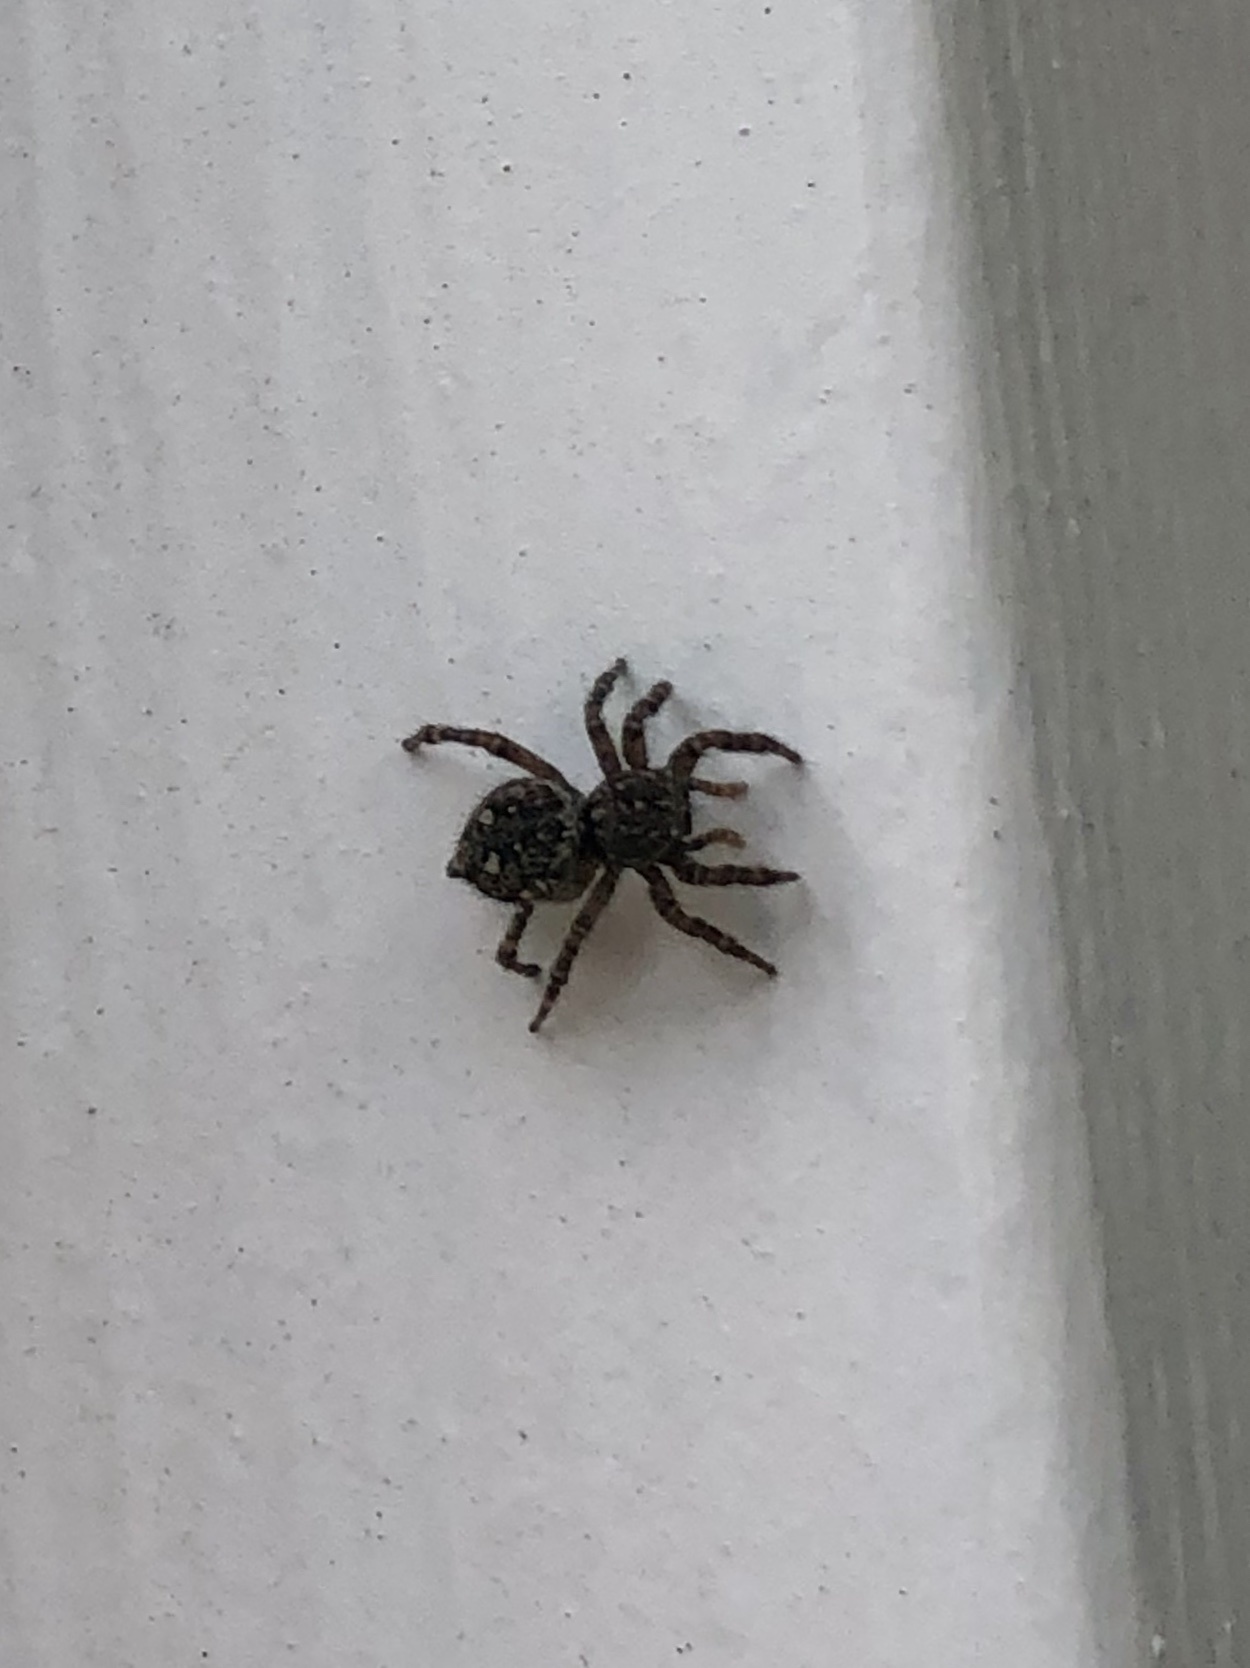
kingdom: Animalia
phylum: Arthropoda
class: Arachnida
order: Araneae
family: Salticidae
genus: Attulus
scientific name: Attulus floricola
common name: Flower jumping spider
